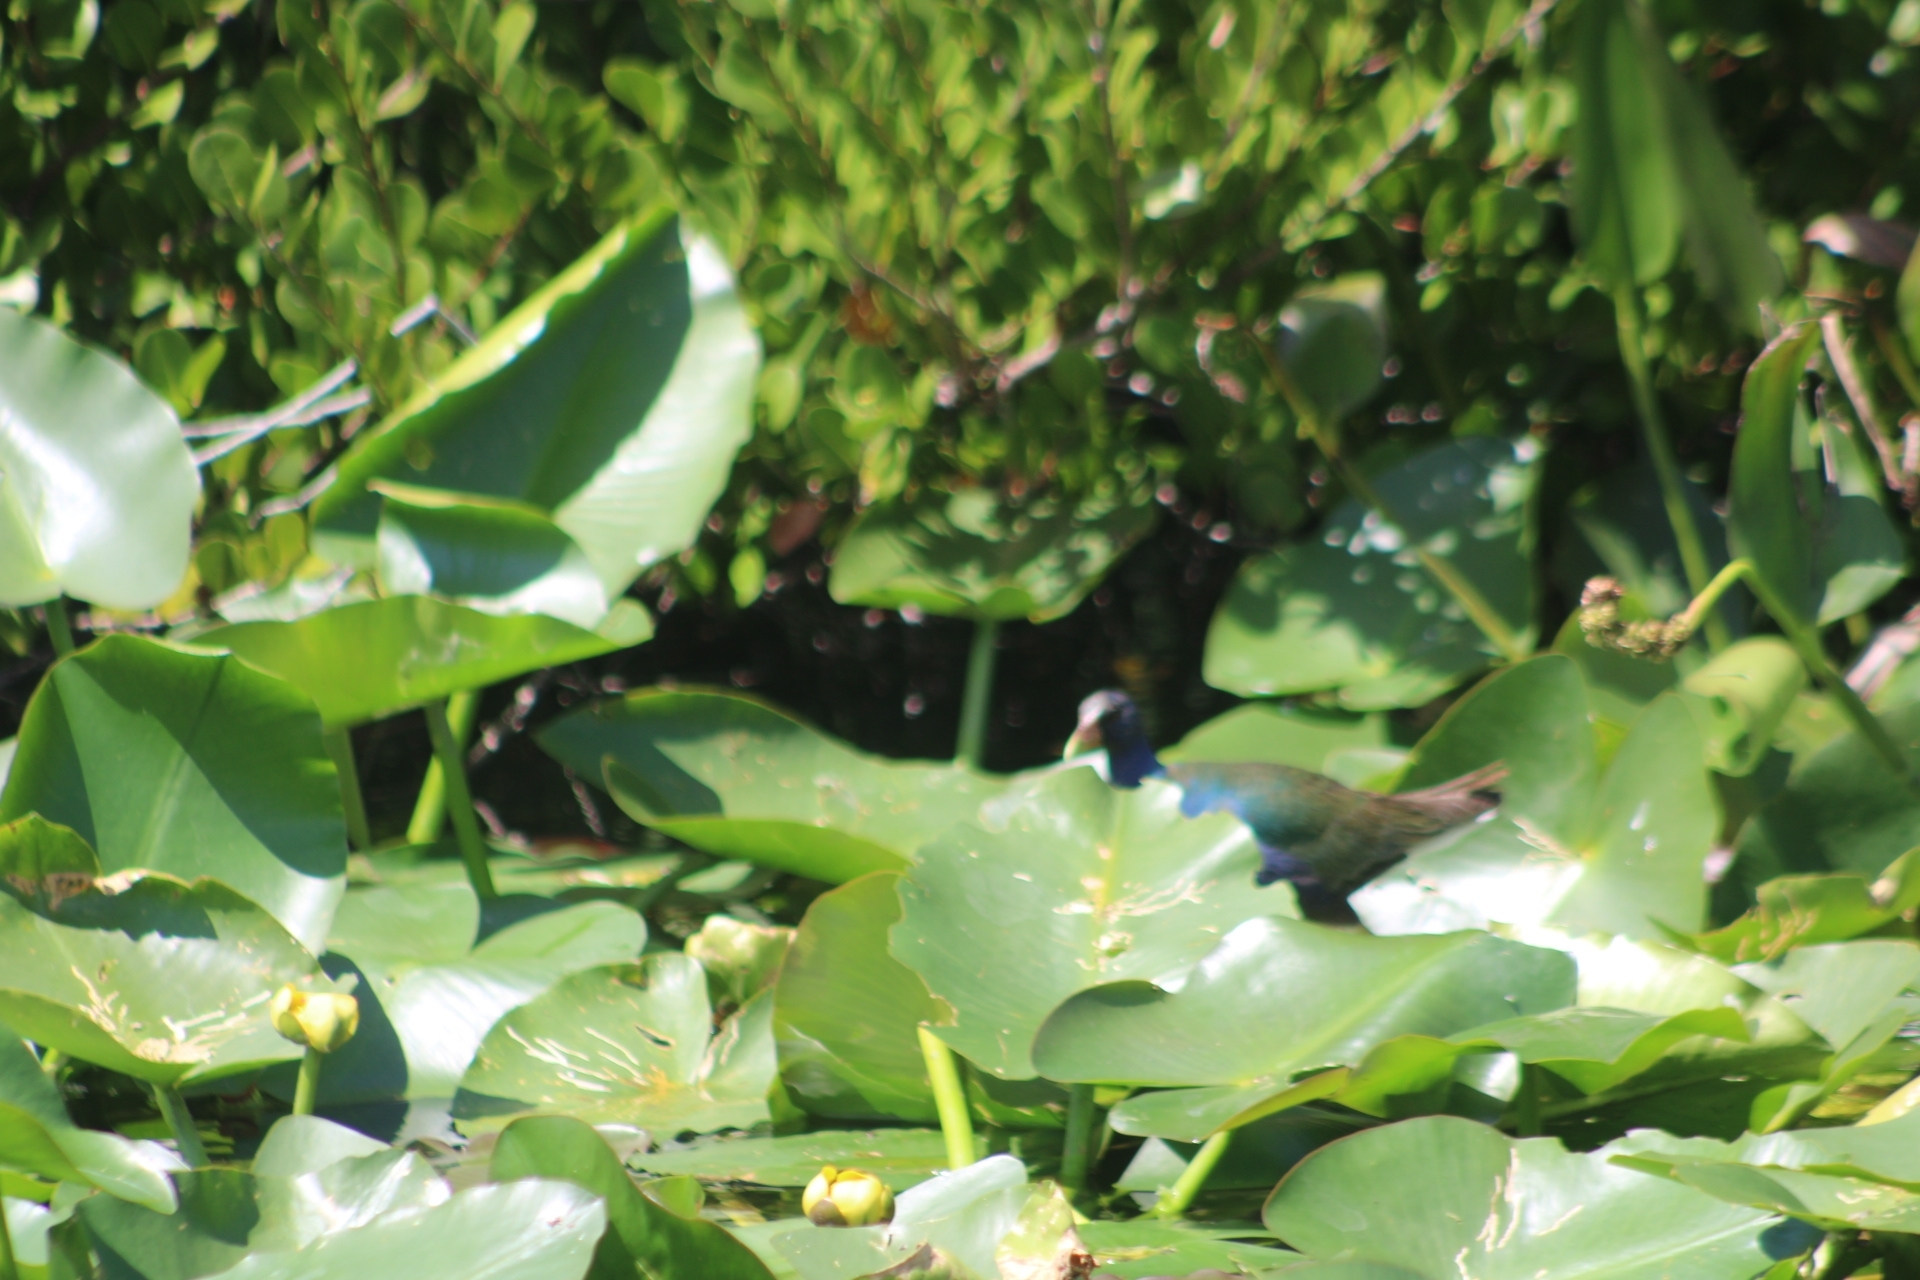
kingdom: Animalia
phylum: Chordata
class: Aves
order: Gruiformes
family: Rallidae
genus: Porphyrio
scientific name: Porphyrio martinica
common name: Purple gallinule
